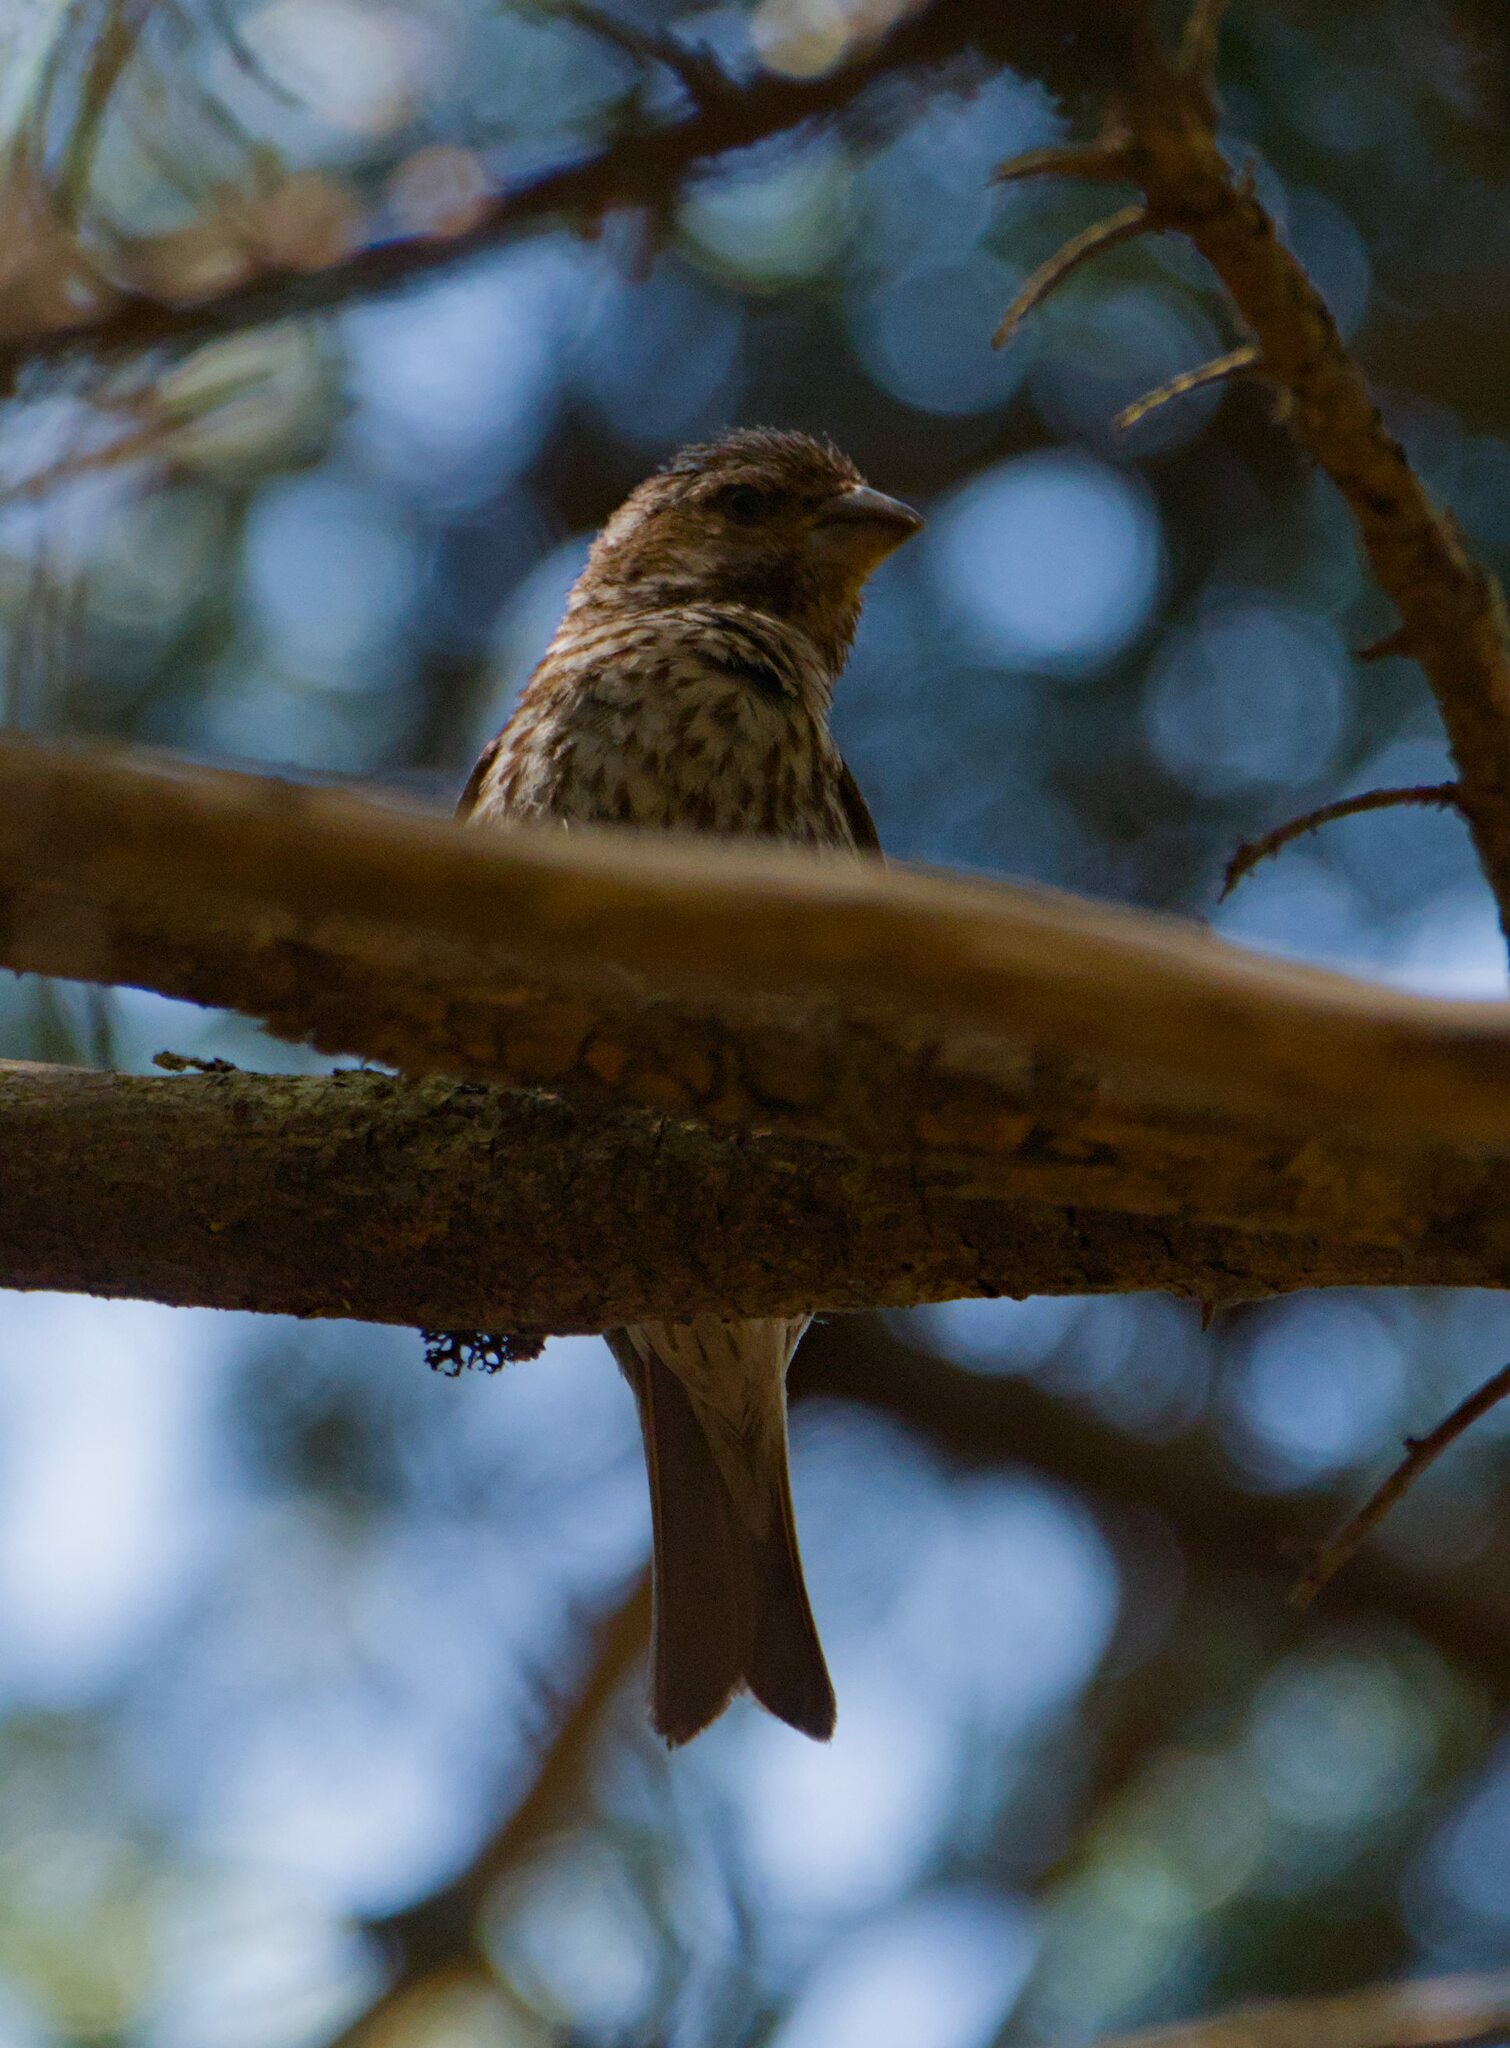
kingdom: Animalia
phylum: Chordata
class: Aves
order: Passeriformes
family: Fringillidae
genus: Haemorhous
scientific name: Haemorhous purpureus
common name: Purple finch
